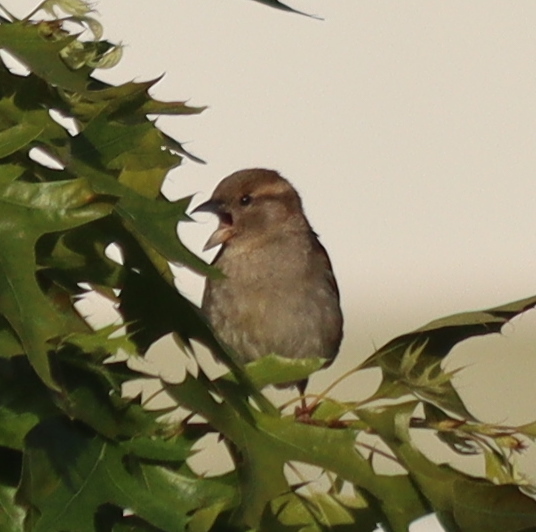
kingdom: Animalia
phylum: Chordata
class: Aves
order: Passeriformes
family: Passeridae
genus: Passer
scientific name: Passer domesticus
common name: House sparrow
